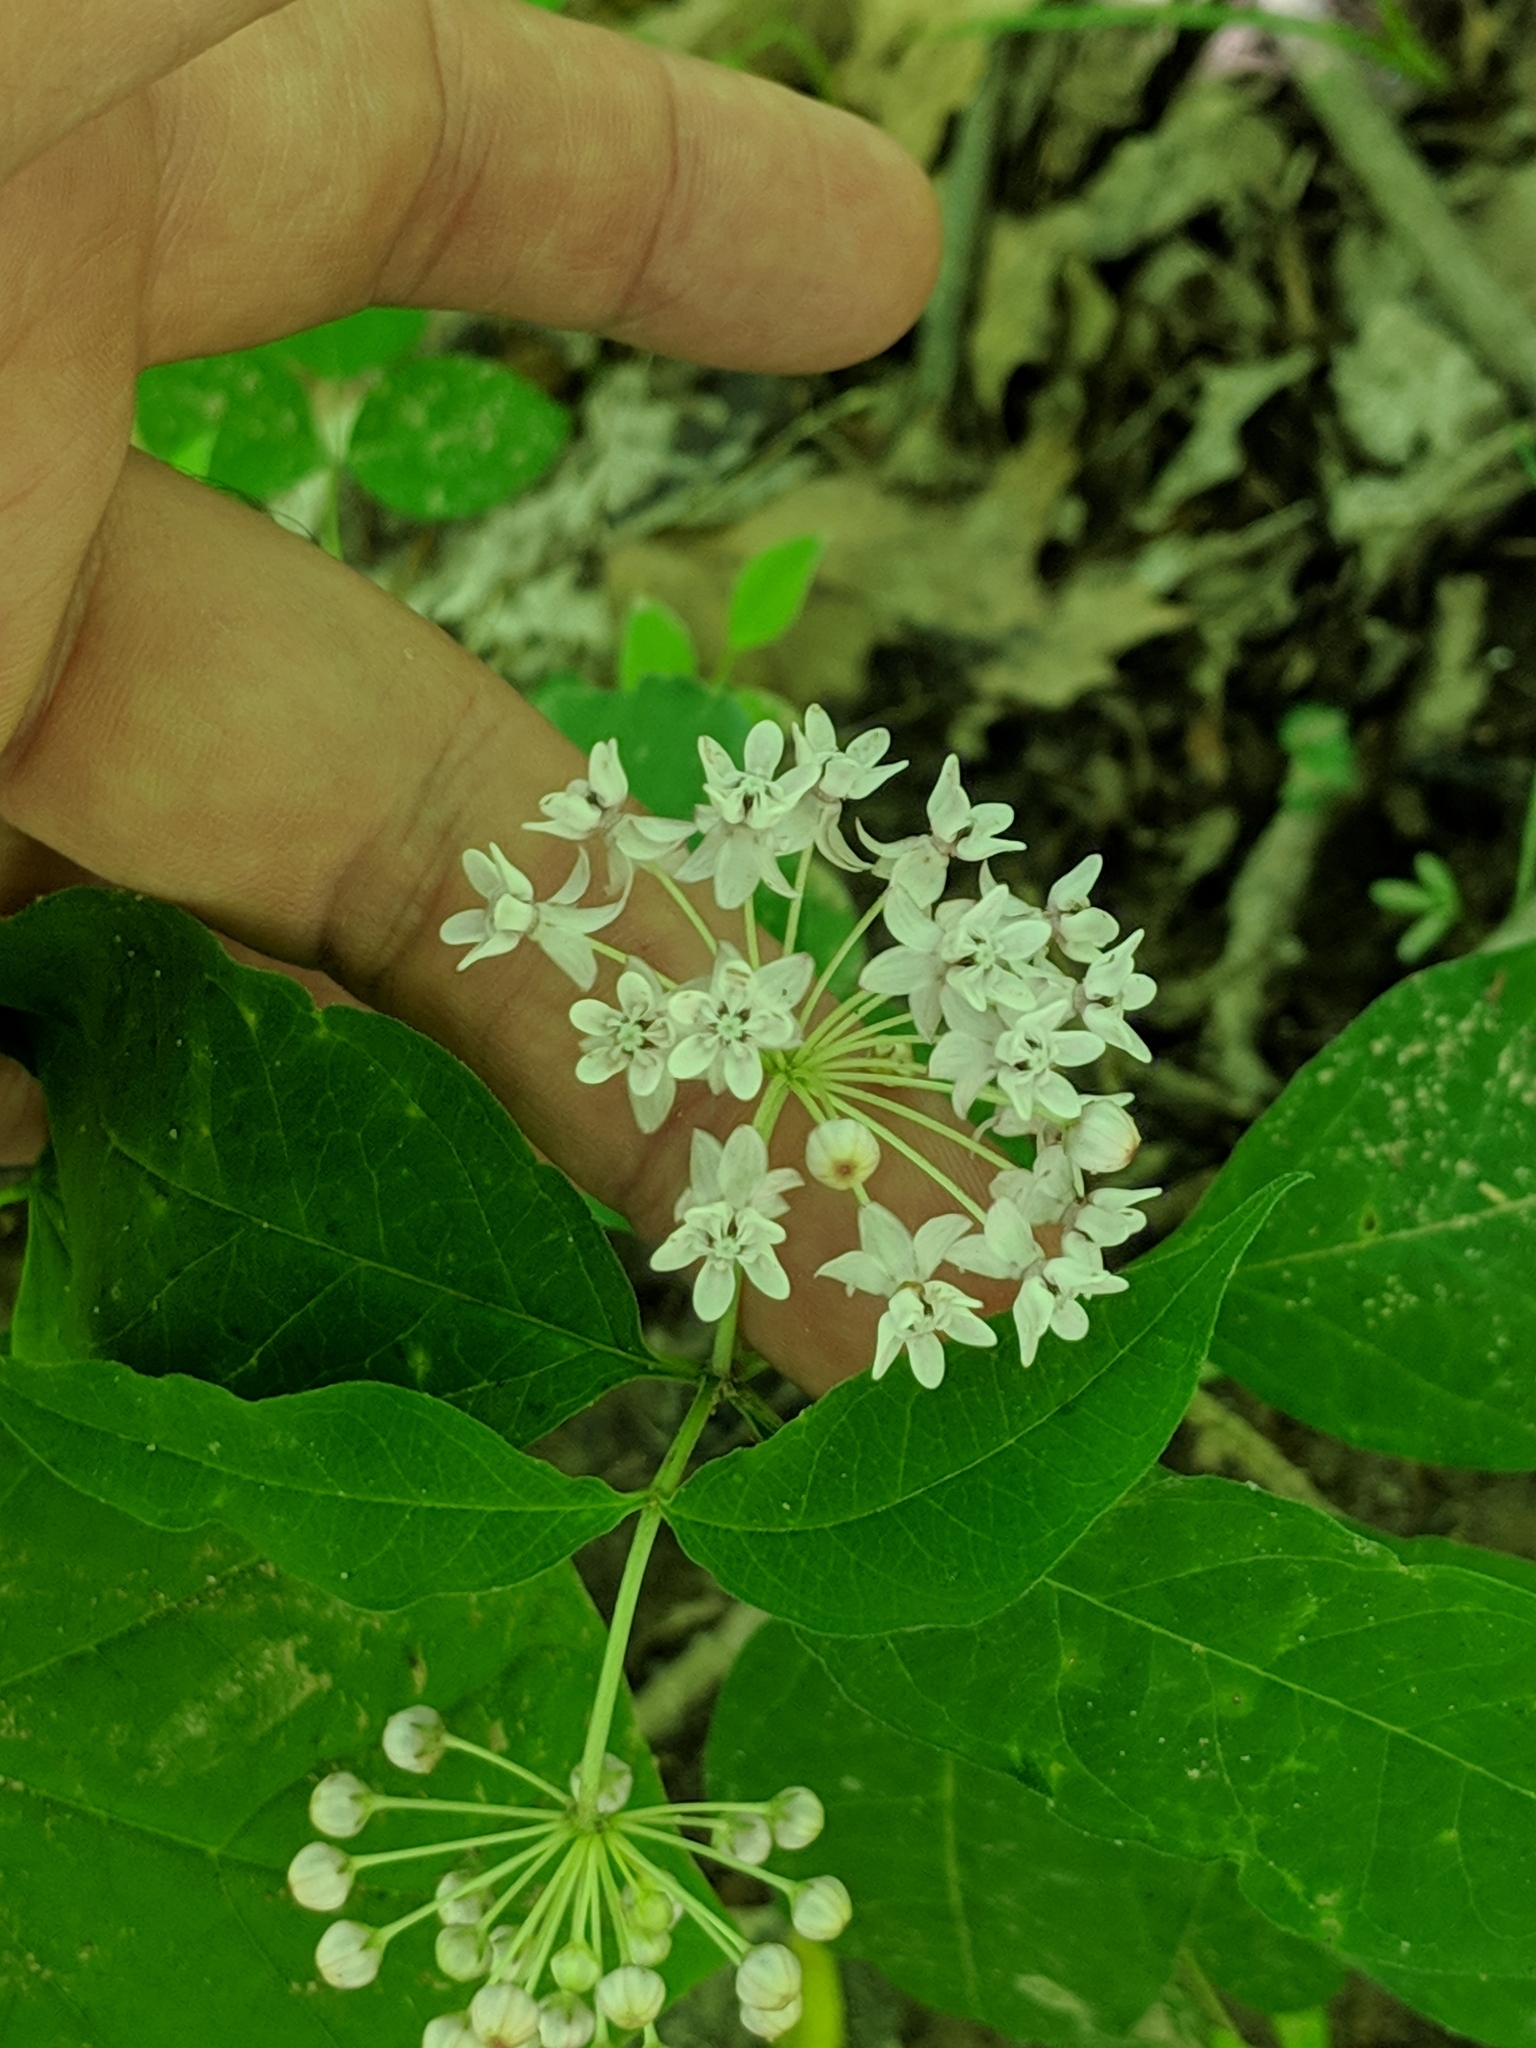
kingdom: Plantae
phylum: Tracheophyta
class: Magnoliopsida
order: Gentianales
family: Apocynaceae
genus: Asclepias
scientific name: Asclepias quadrifolia
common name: Whorled milkweed
